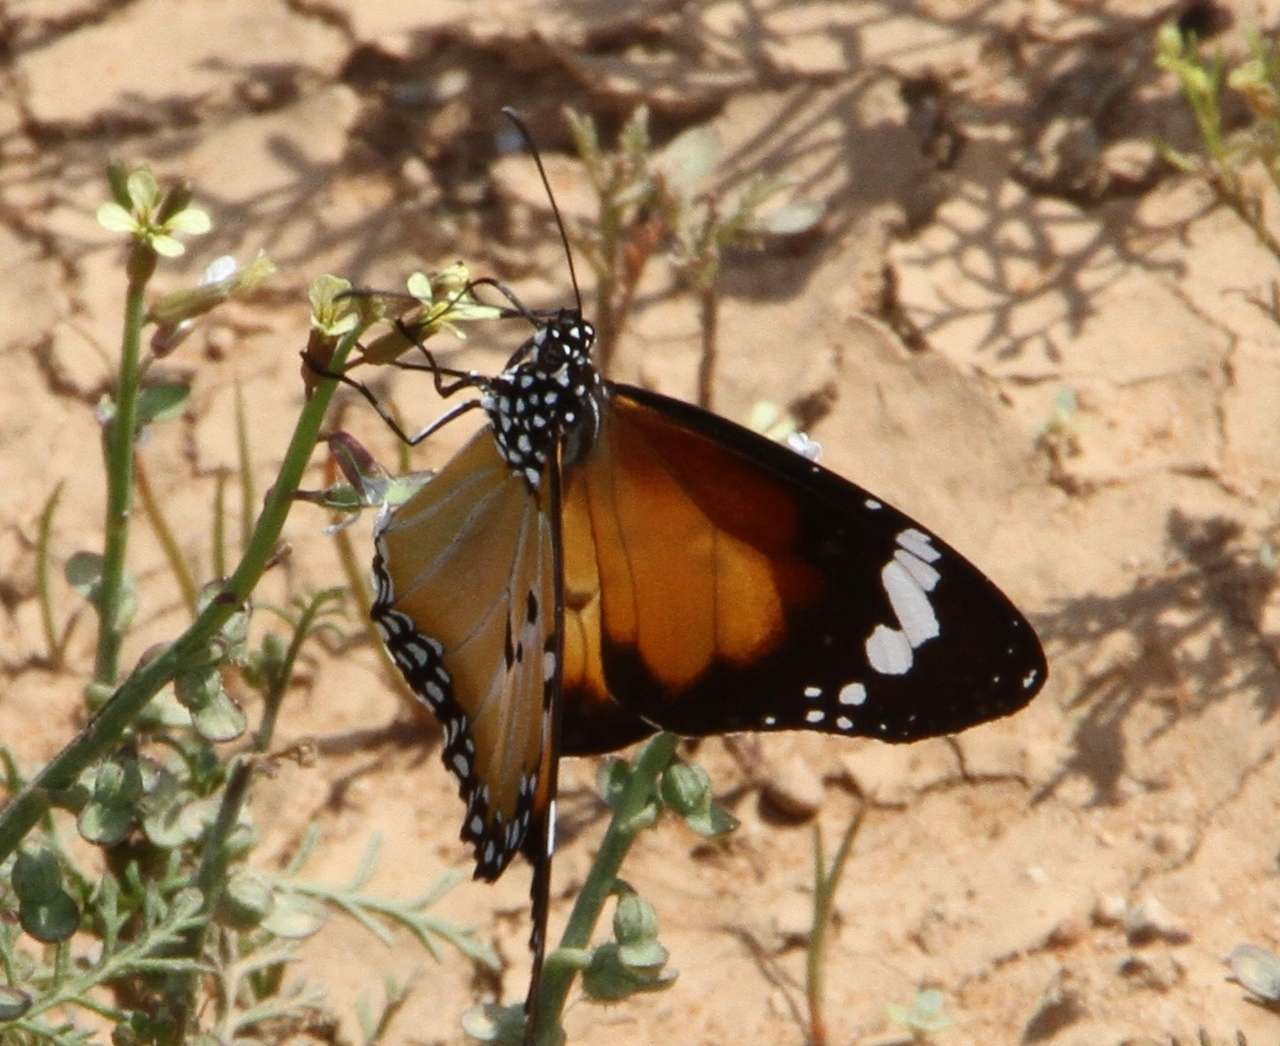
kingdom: Animalia
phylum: Arthropoda
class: Insecta
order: Lepidoptera
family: Nymphalidae
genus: Danaus
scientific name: Danaus chrysippus
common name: Plain tiger
